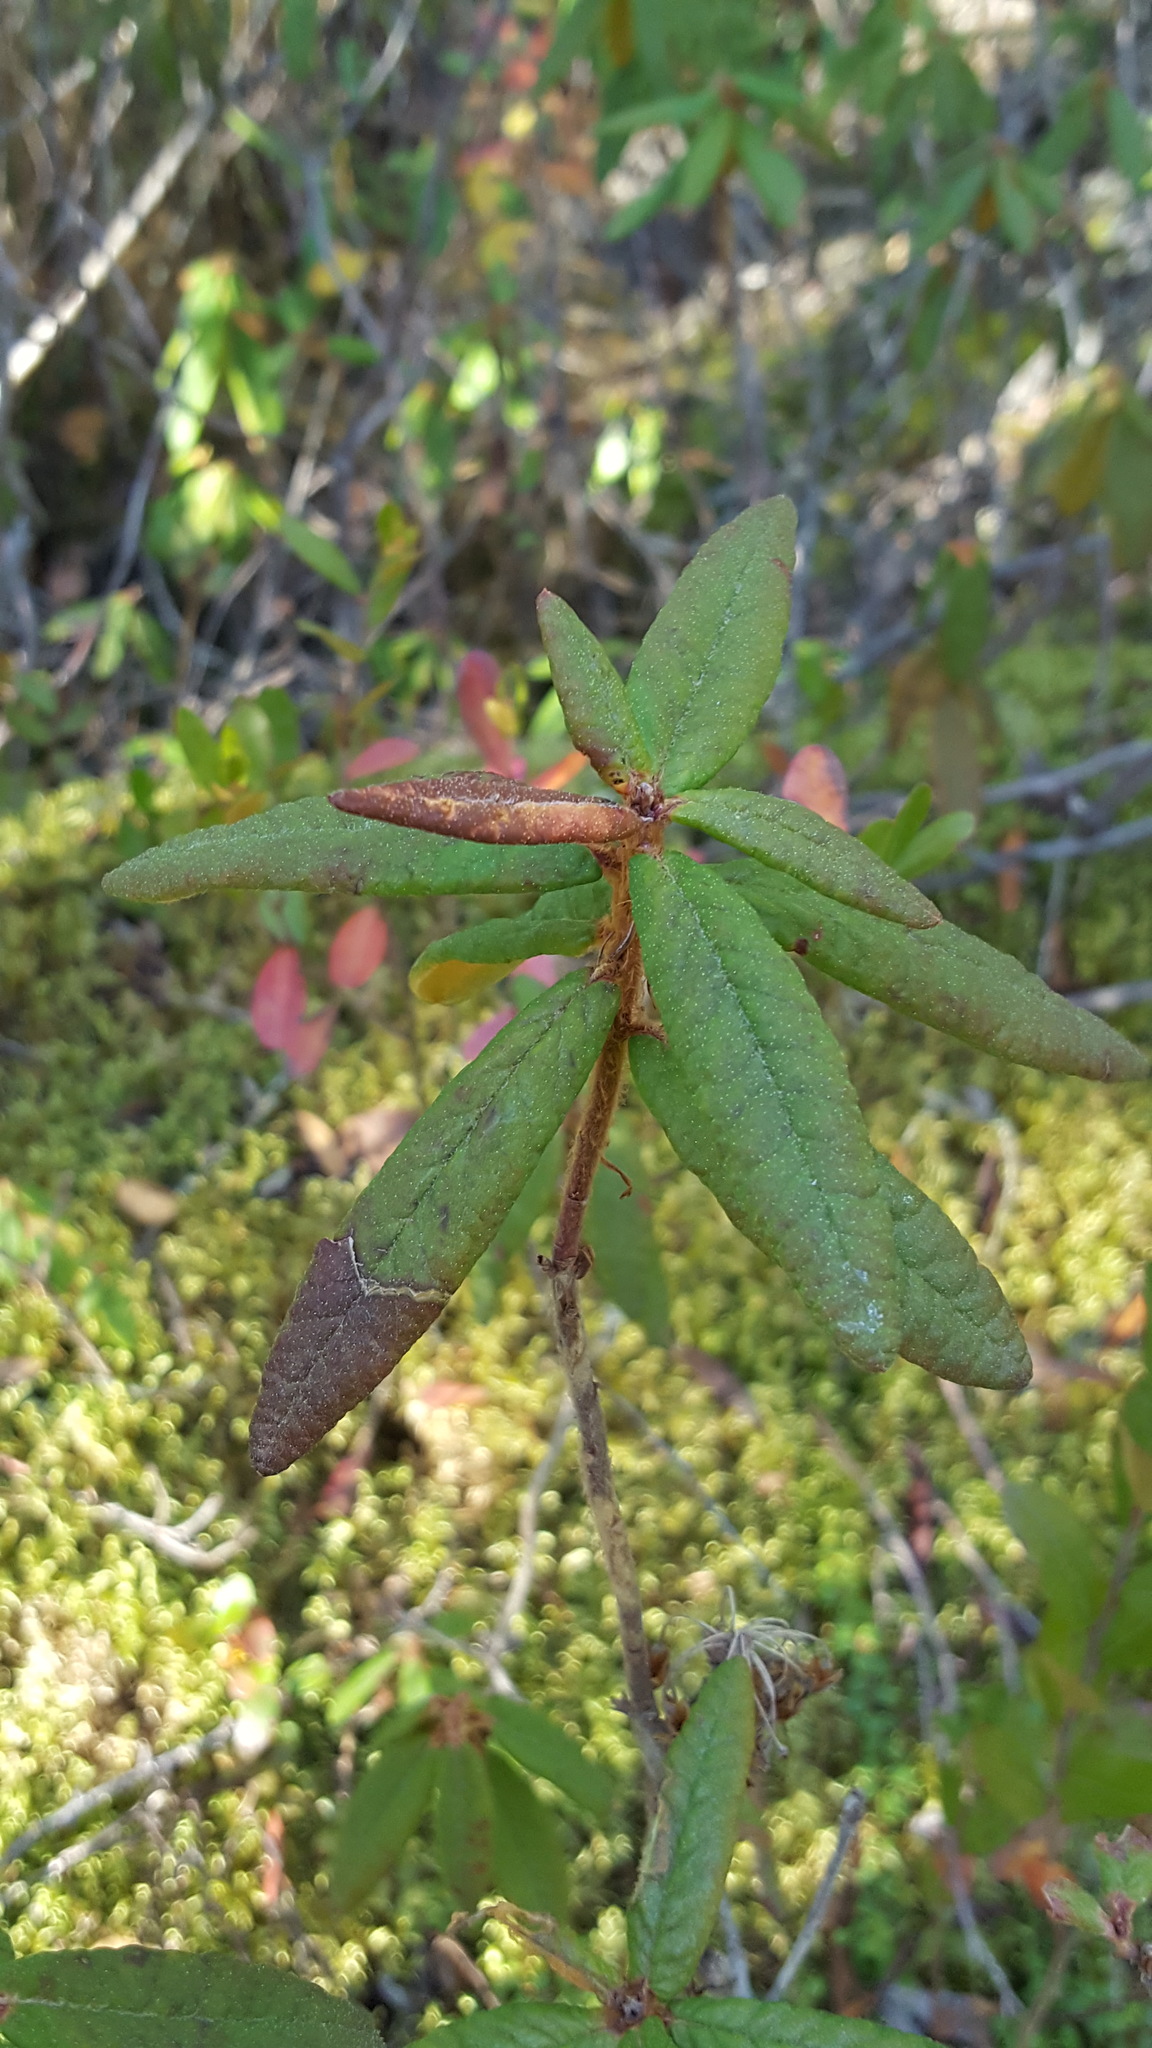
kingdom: Plantae
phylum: Tracheophyta
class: Magnoliopsida
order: Ericales
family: Ericaceae
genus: Rhododendron
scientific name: Rhododendron groenlandicum
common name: Bog labrador tea
